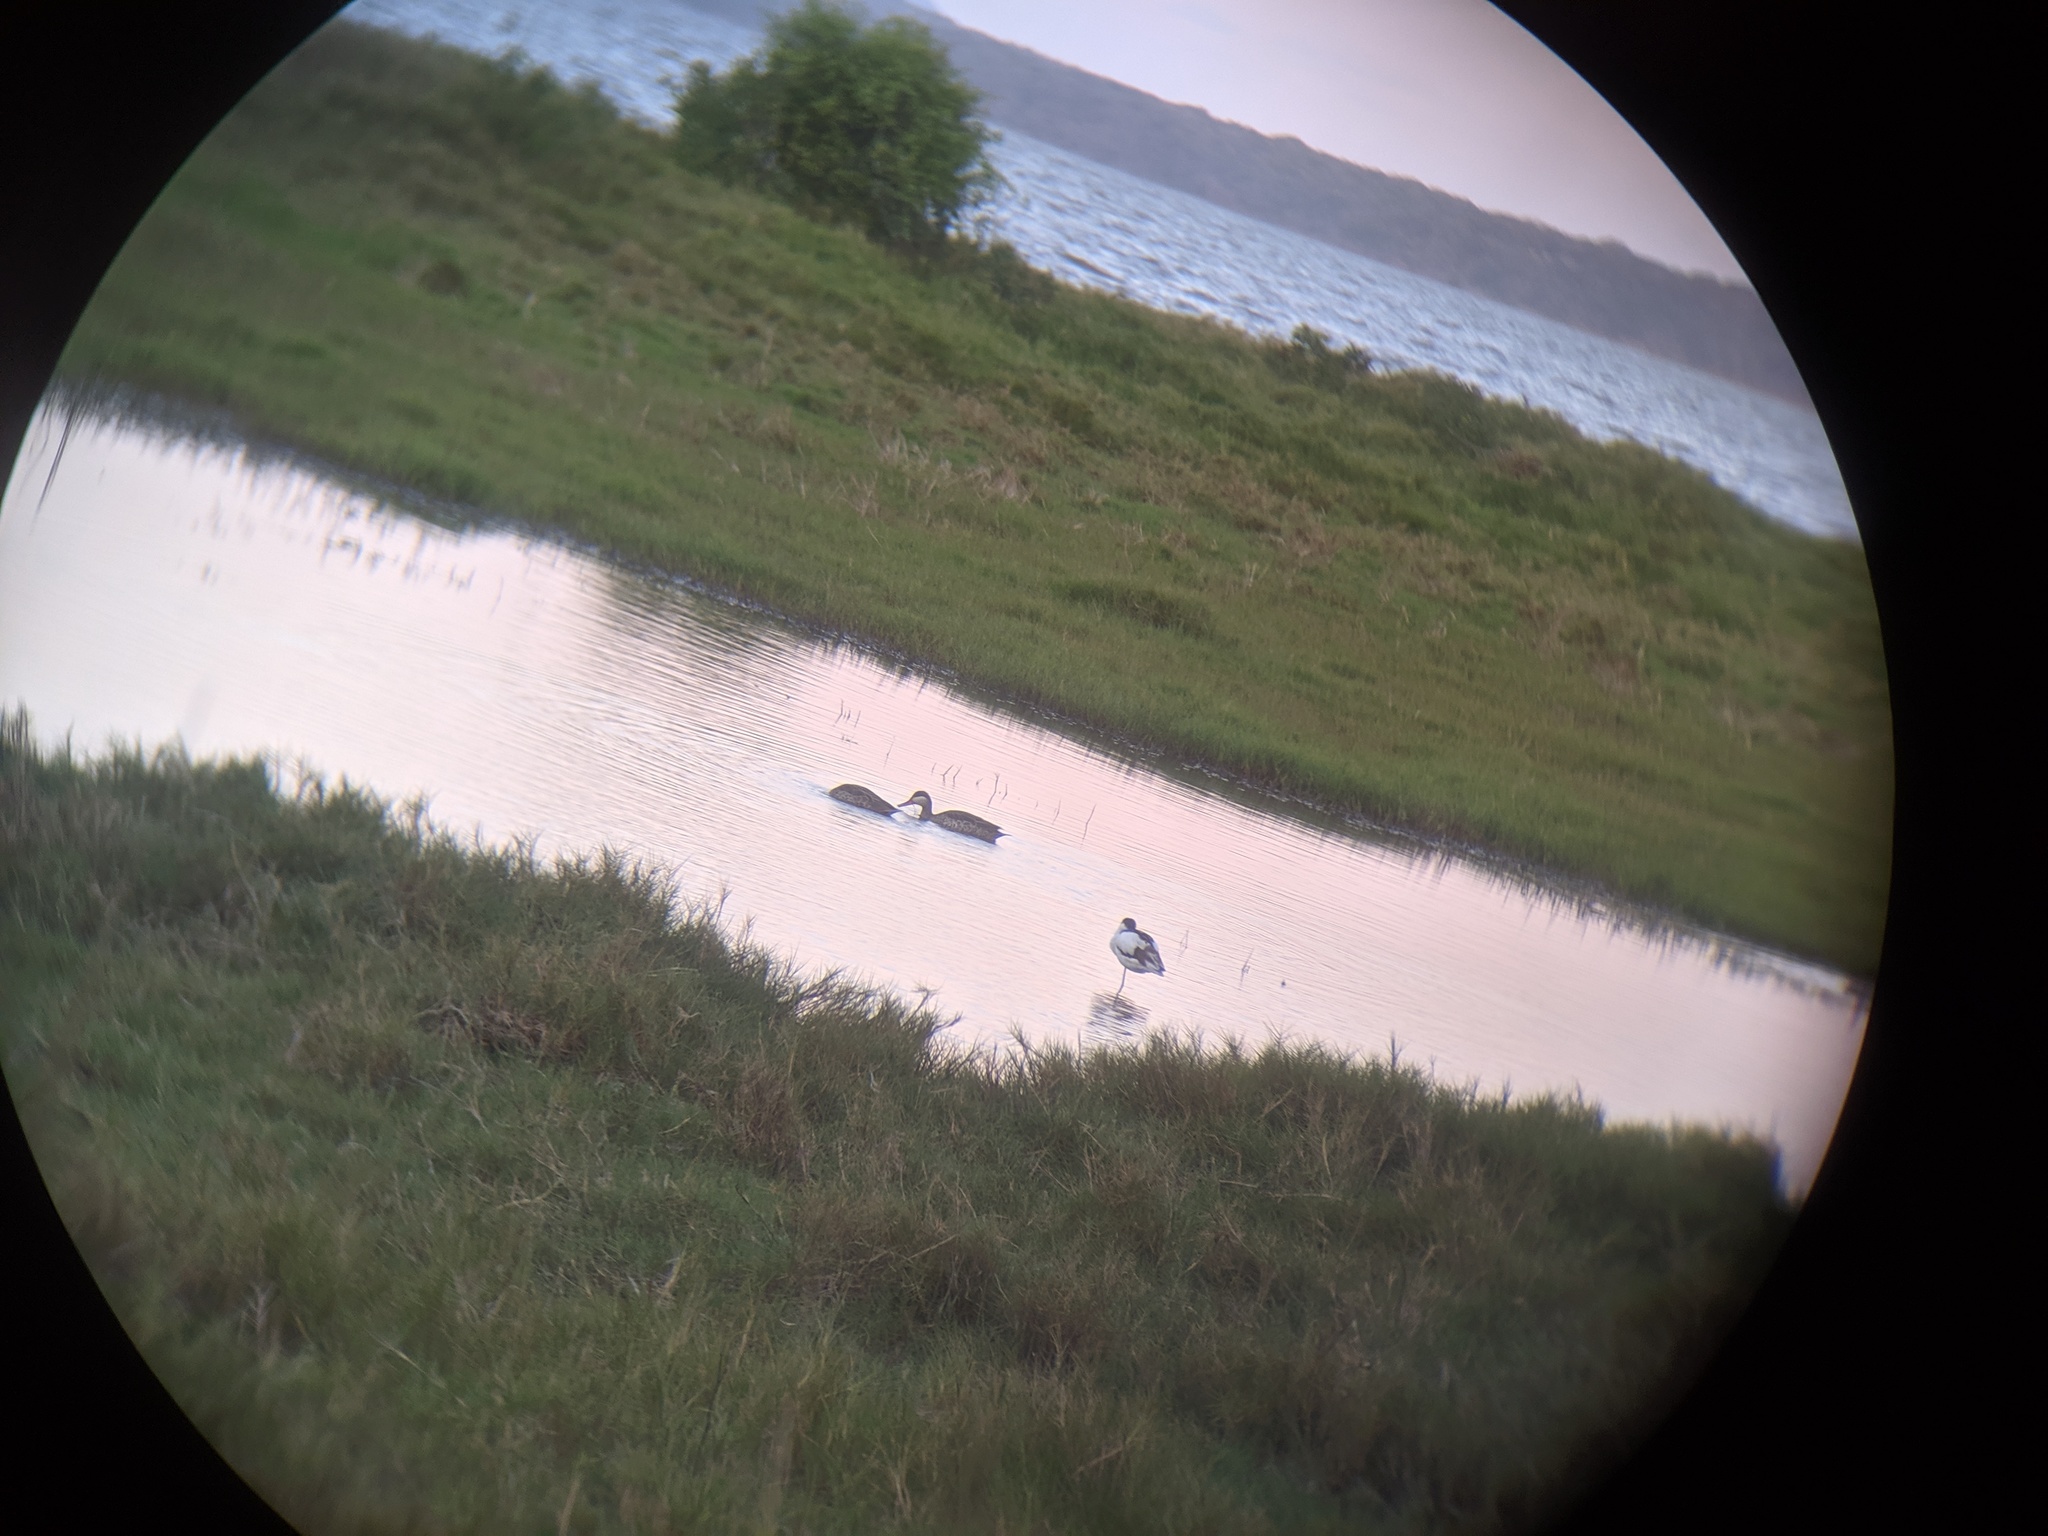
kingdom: Animalia
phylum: Chordata
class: Aves
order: Anseriformes
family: Anatidae
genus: Anas
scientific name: Anas erythrorhyncha
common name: Red-billed teal
